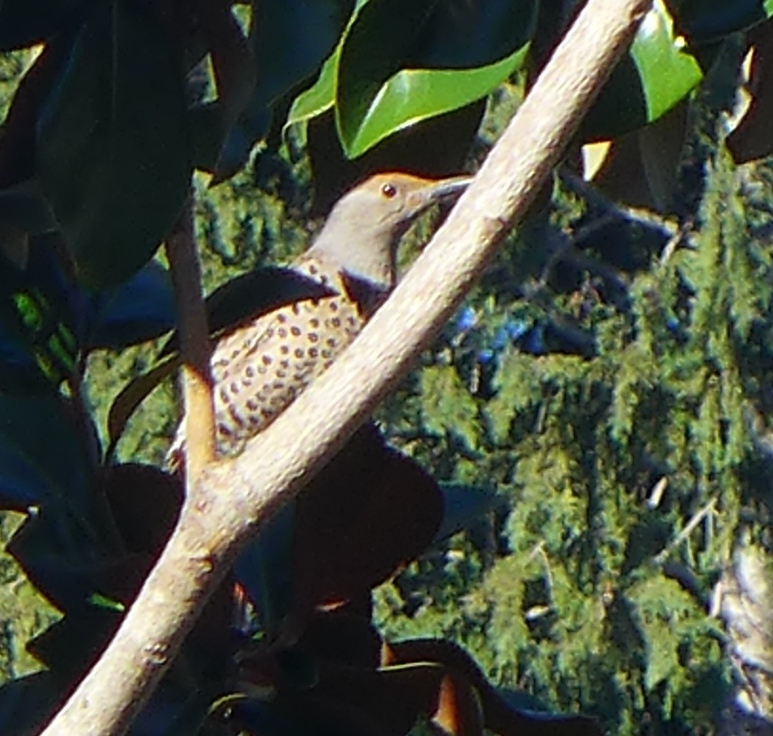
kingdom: Animalia
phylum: Chordata
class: Aves
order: Piciformes
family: Picidae
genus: Colaptes
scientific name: Colaptes auratus
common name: Northern flicker
